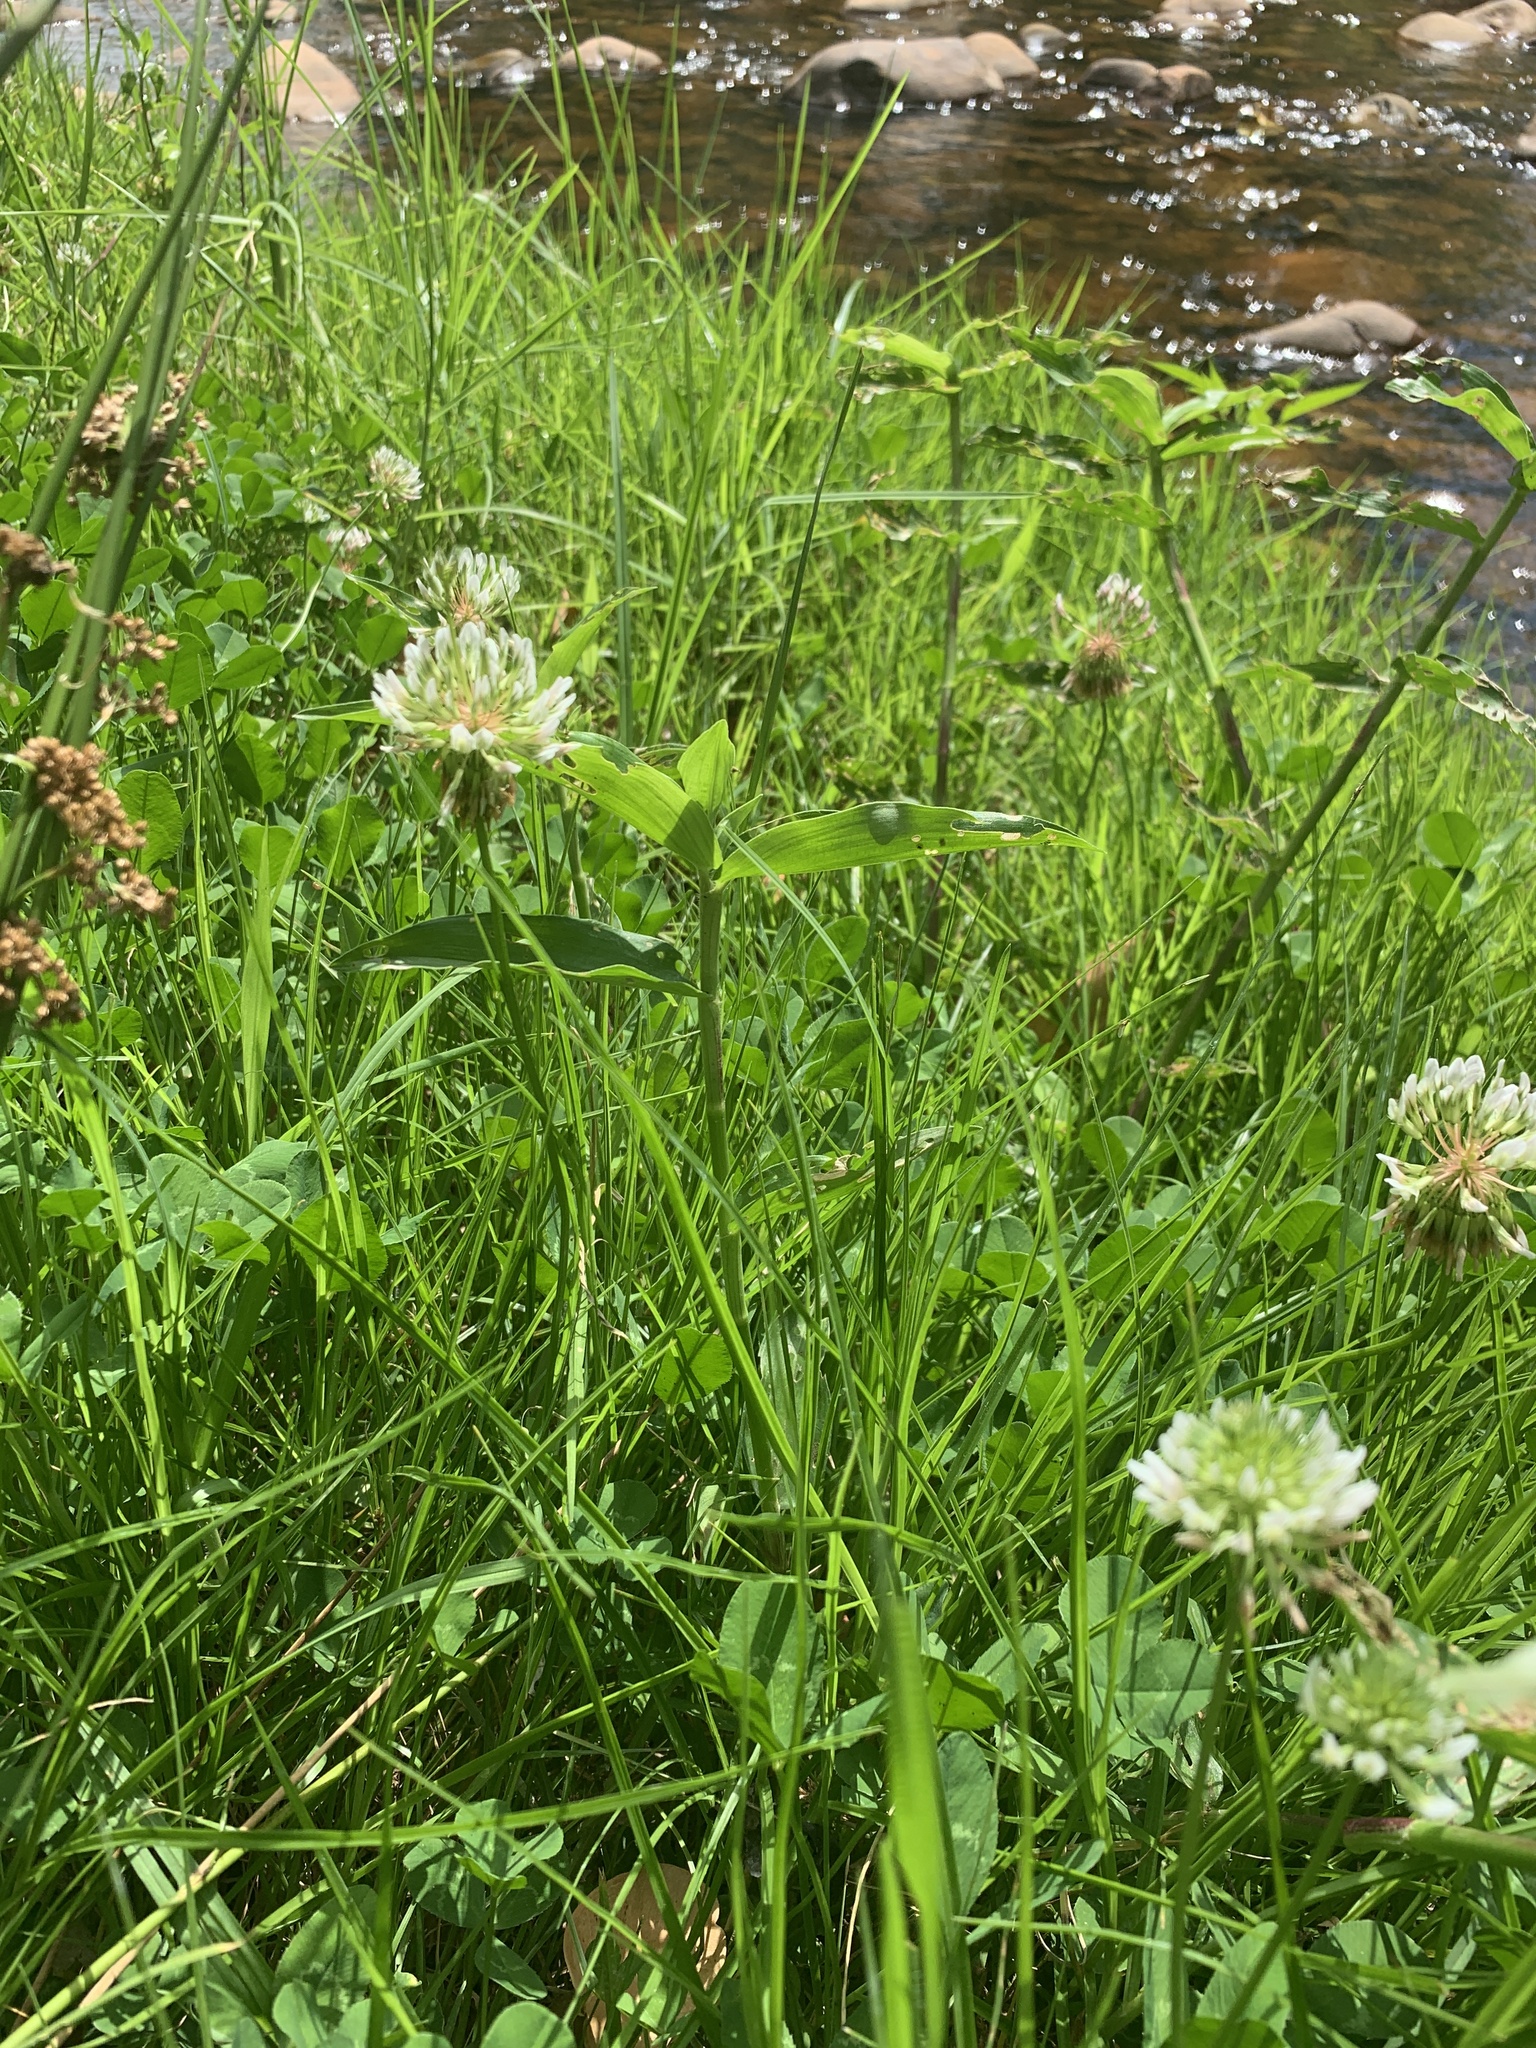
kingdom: Plantae
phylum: Tracheophyta
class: Magnoliopsida
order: Fabales
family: Fabaceae
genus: Trifolium
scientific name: Trifolium repens
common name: White clover
